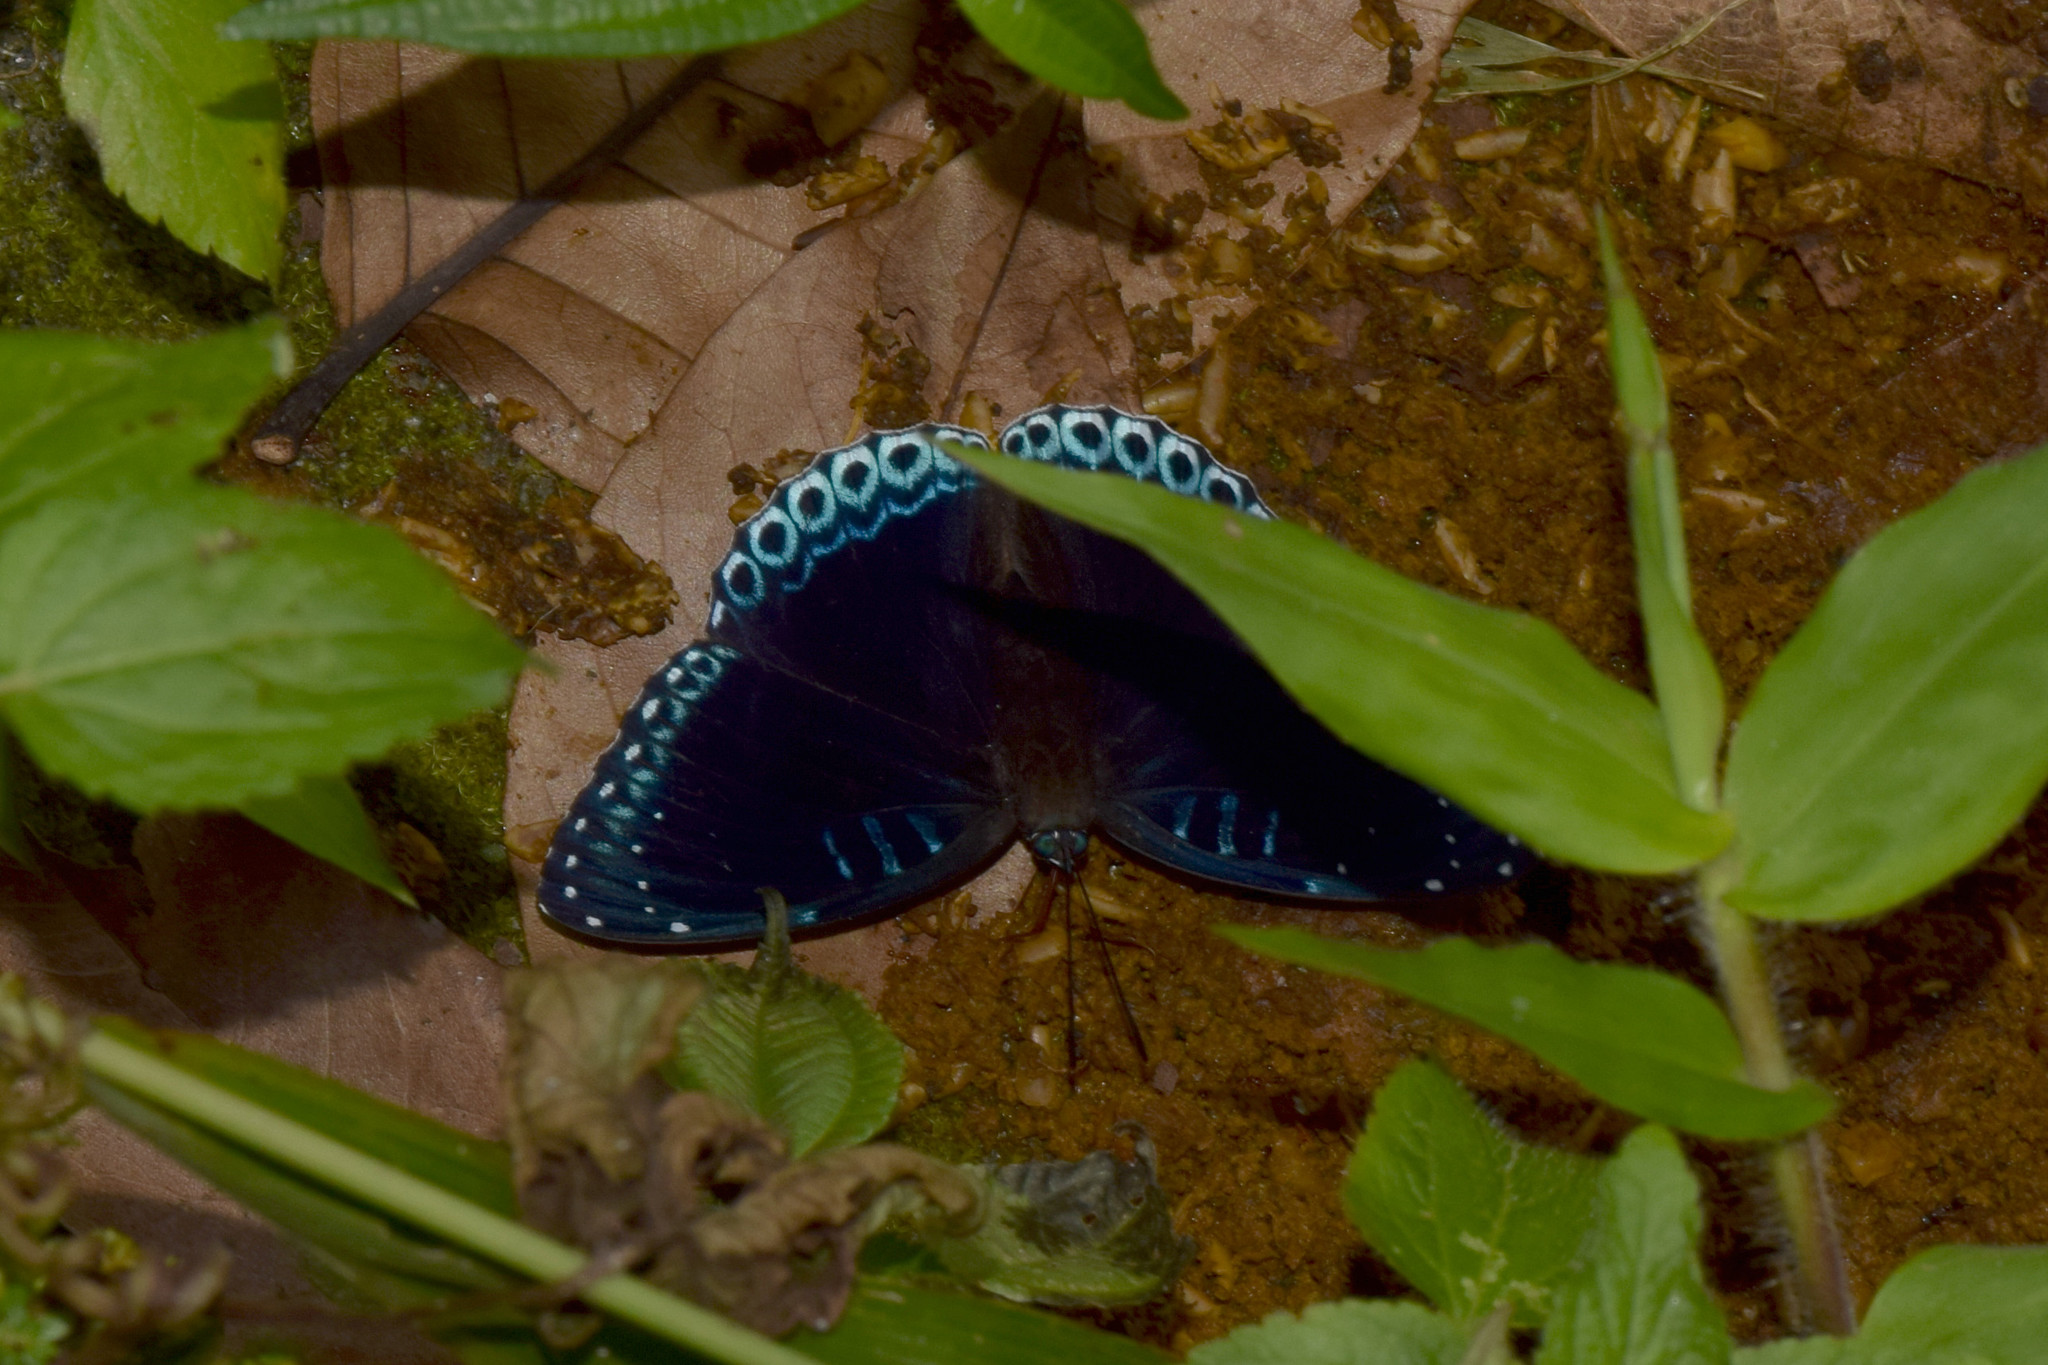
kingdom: Animalia
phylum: Arthropoda
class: Insecta
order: Lepidoptera
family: Nymphalidae
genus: Stibochiona
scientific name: Stibochiona nicea
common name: Popinjay
